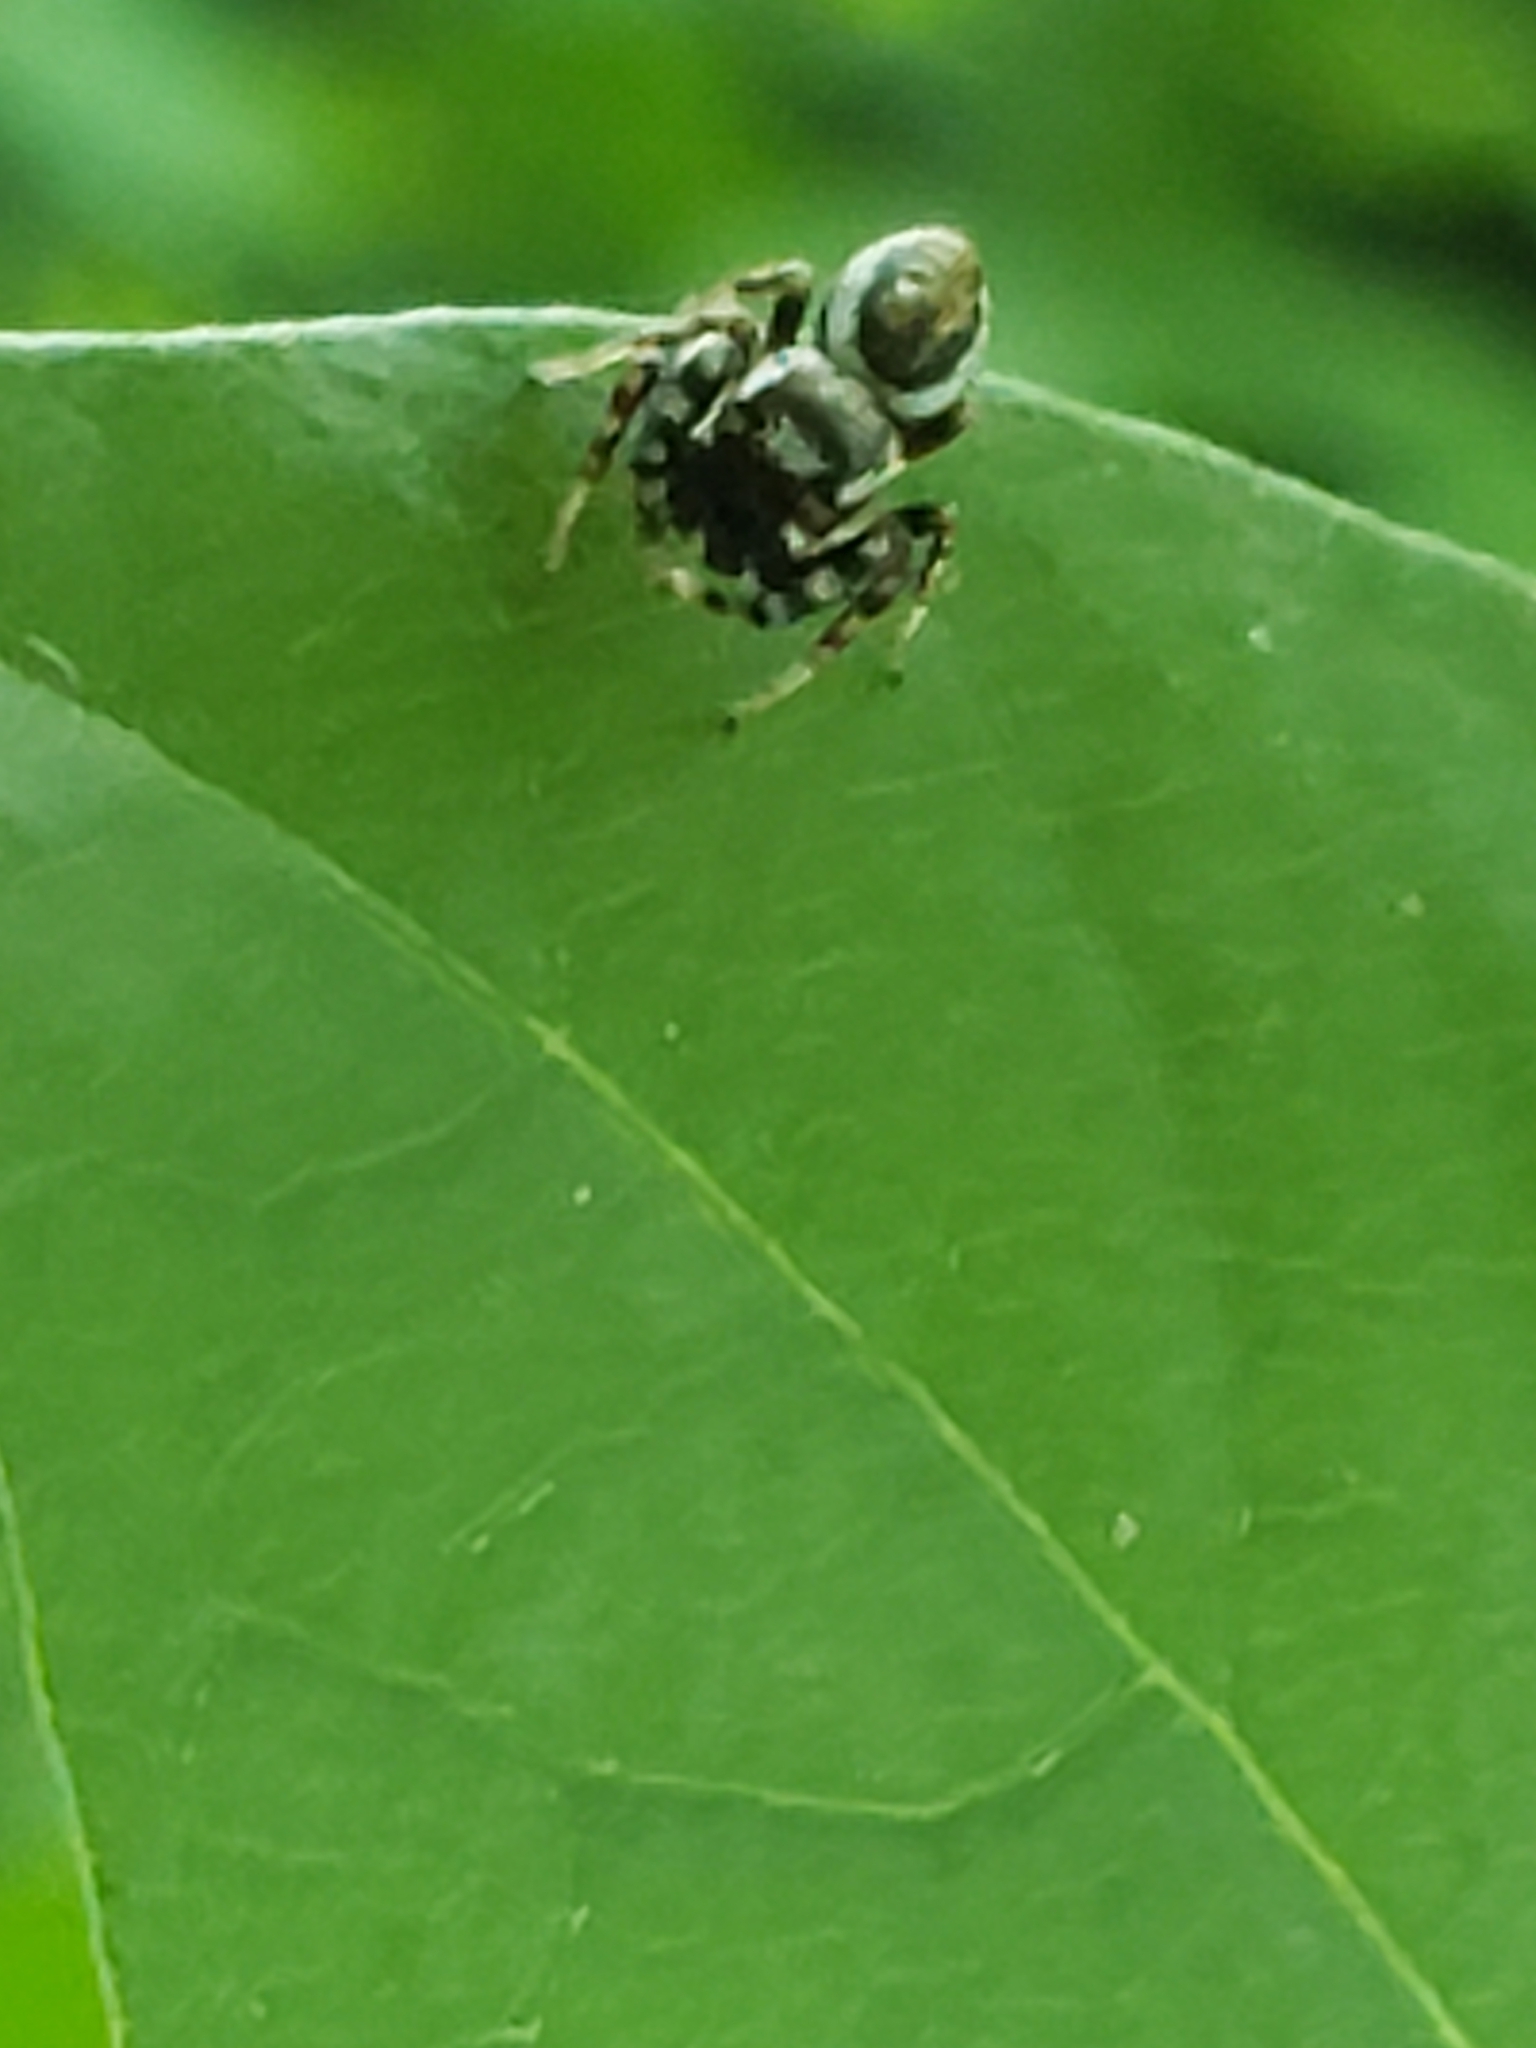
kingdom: Animalia
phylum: Arthropoda
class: Arachnida
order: Araneae
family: Salticidae
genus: Pelegrina
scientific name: Pelegrina proterva
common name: Common white-cheeked jumping spider
